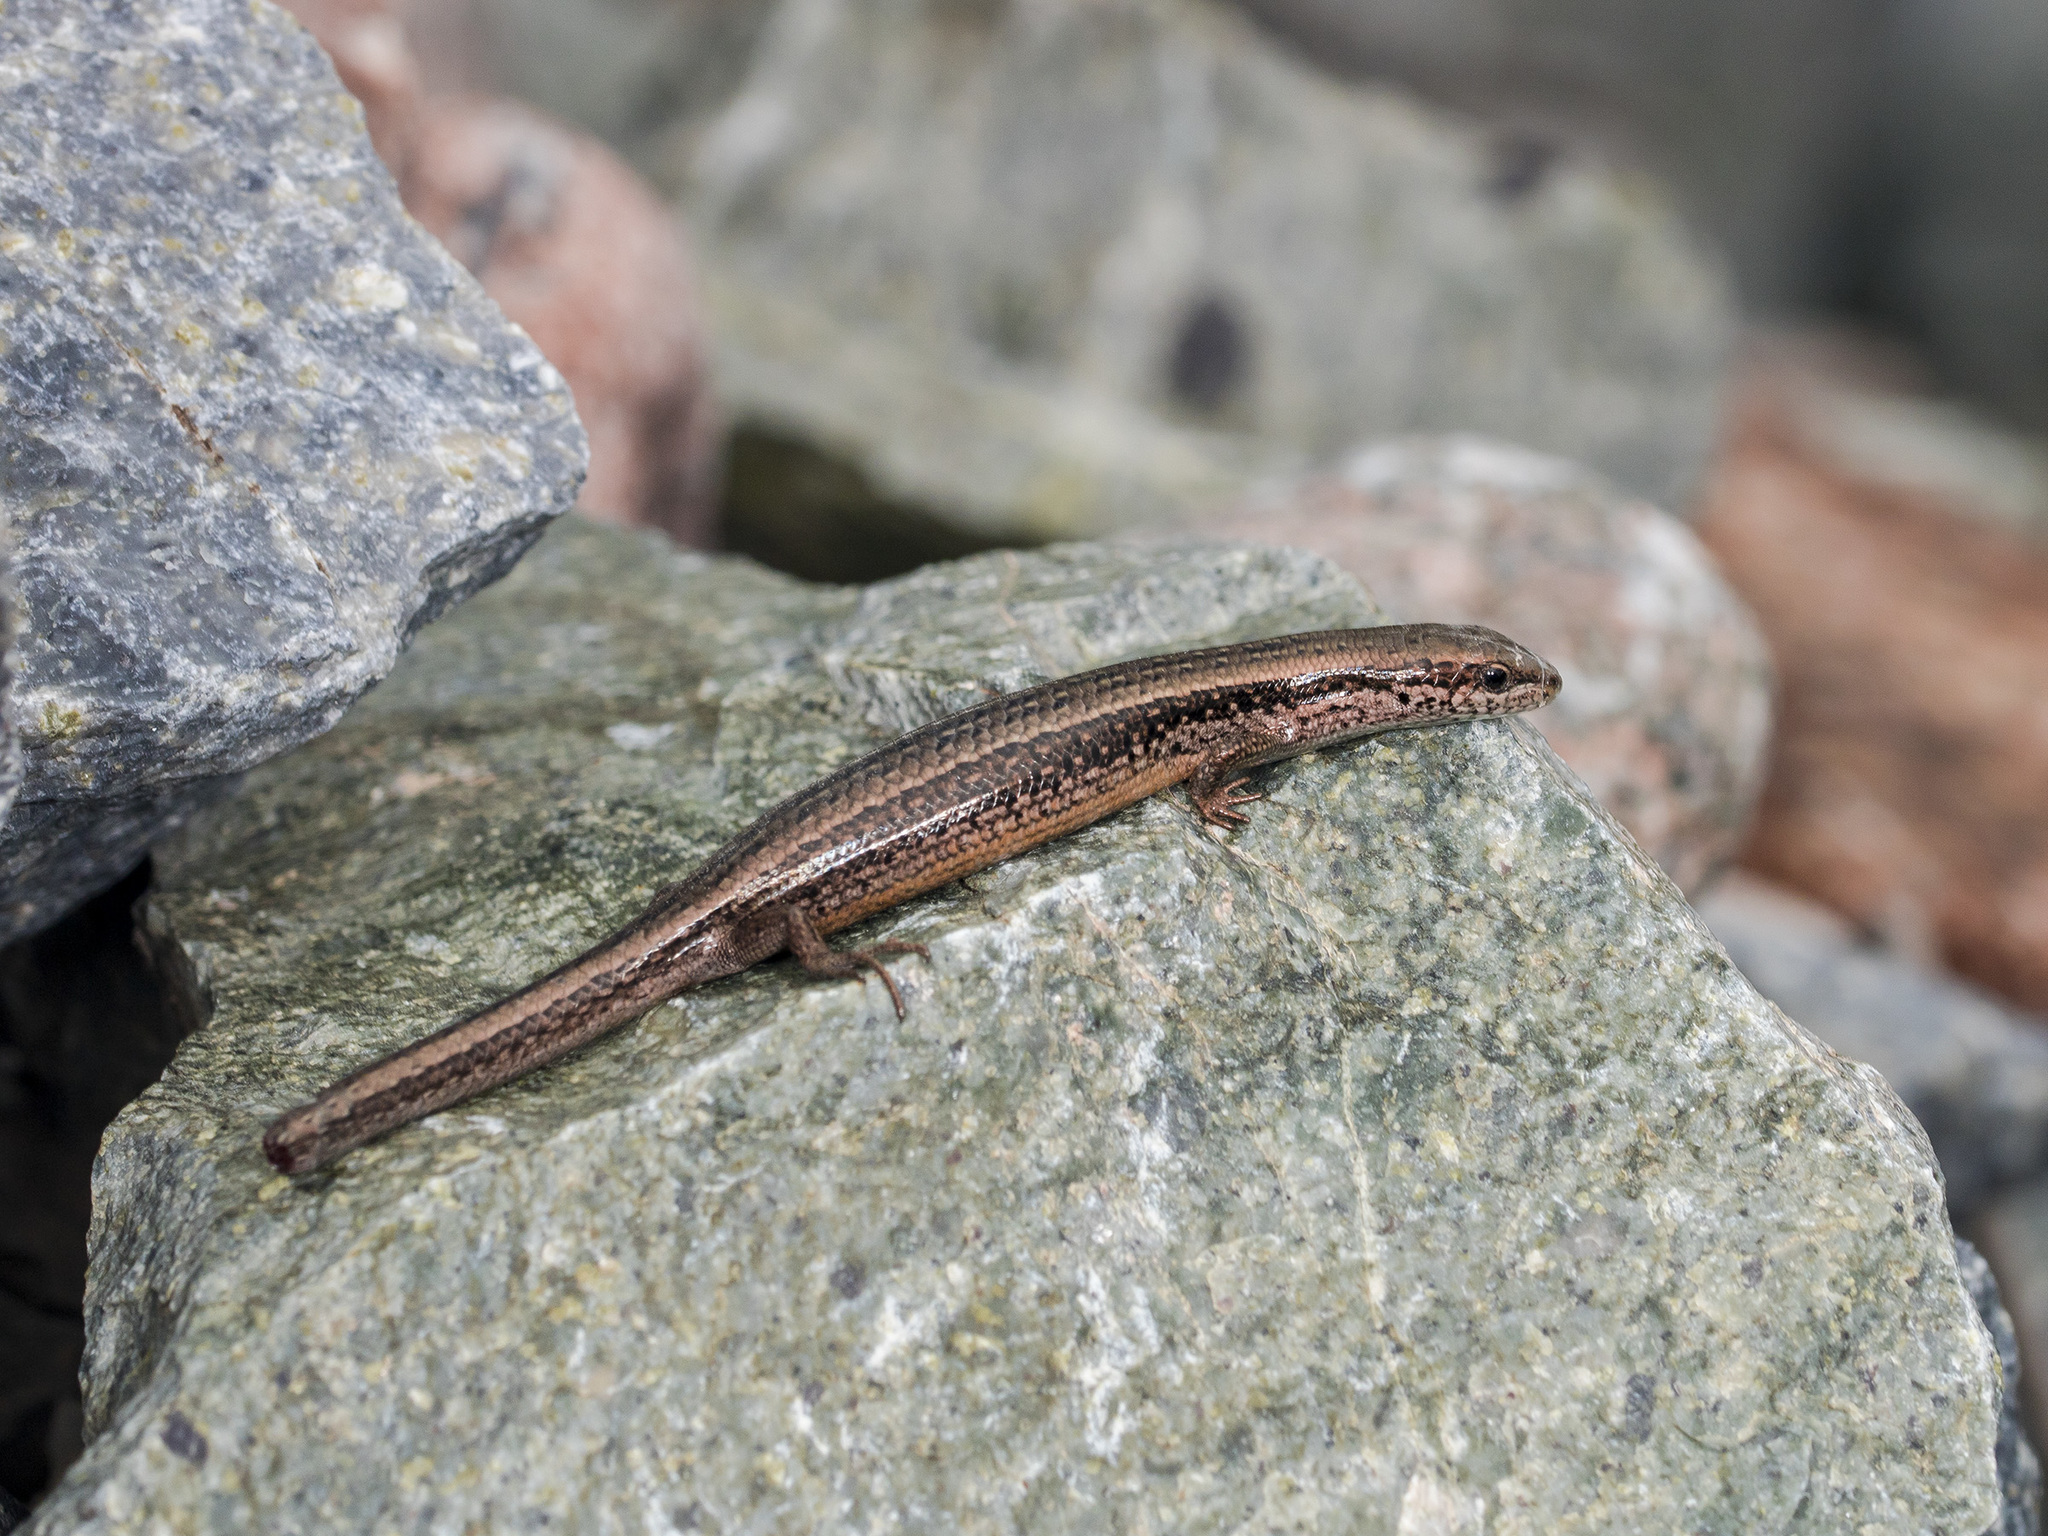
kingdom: Animalia
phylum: Chordata
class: Squamata
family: Scincidae
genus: Asymblepharus
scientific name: Asymblepharus alaicus
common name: Alai ground skink
